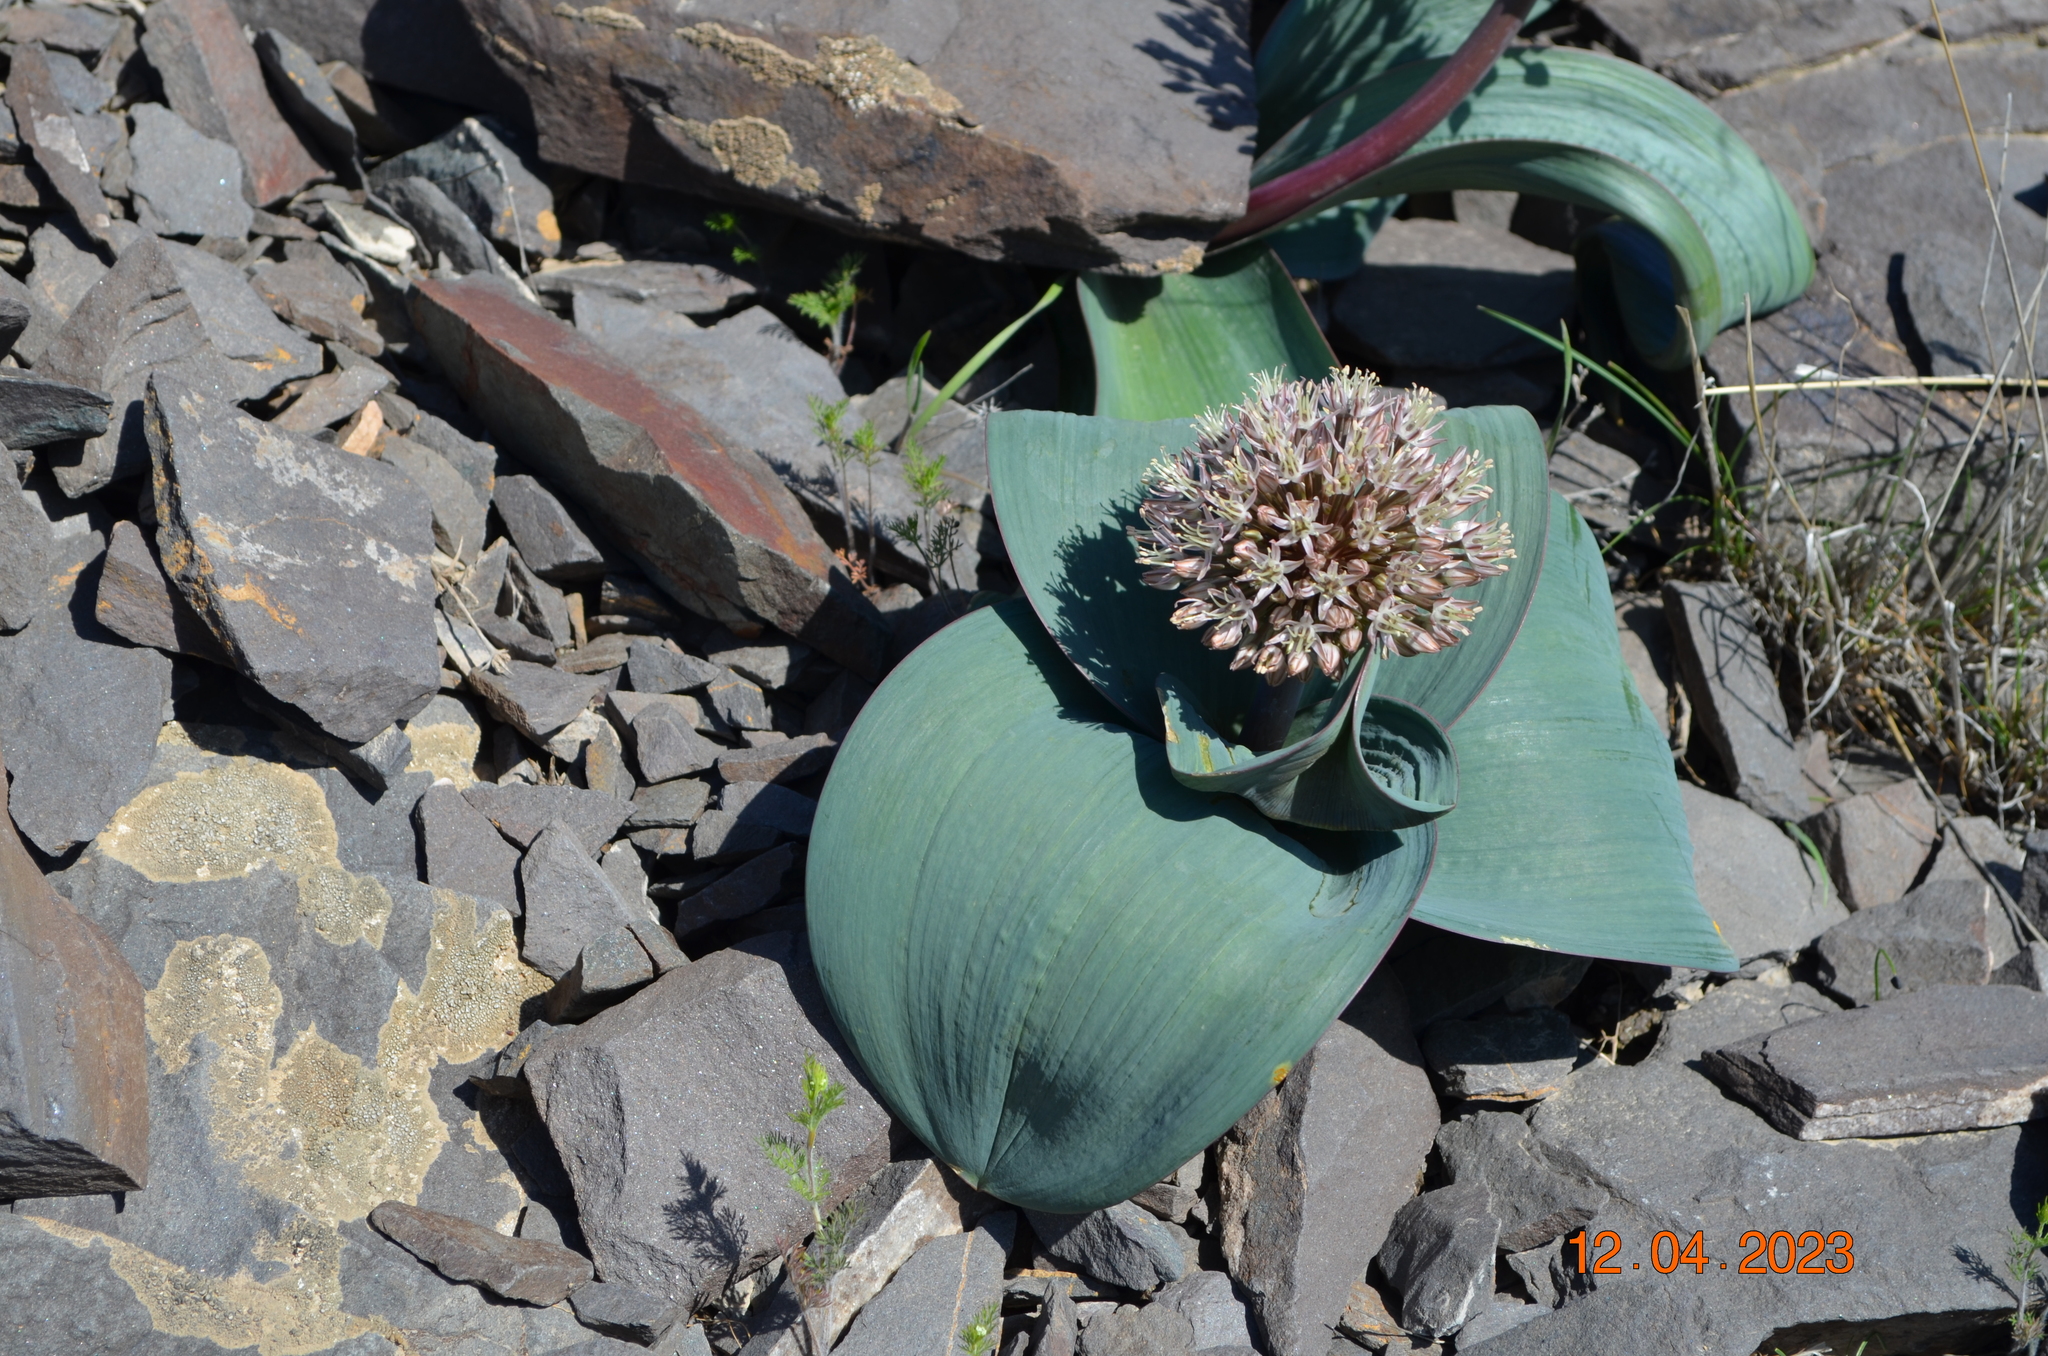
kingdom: Plantae
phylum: Tracheophyta
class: Liliopsida
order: Asparagales
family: Amaryllidaceae
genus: Allium
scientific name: Allium karataviense
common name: Turkestan onion
